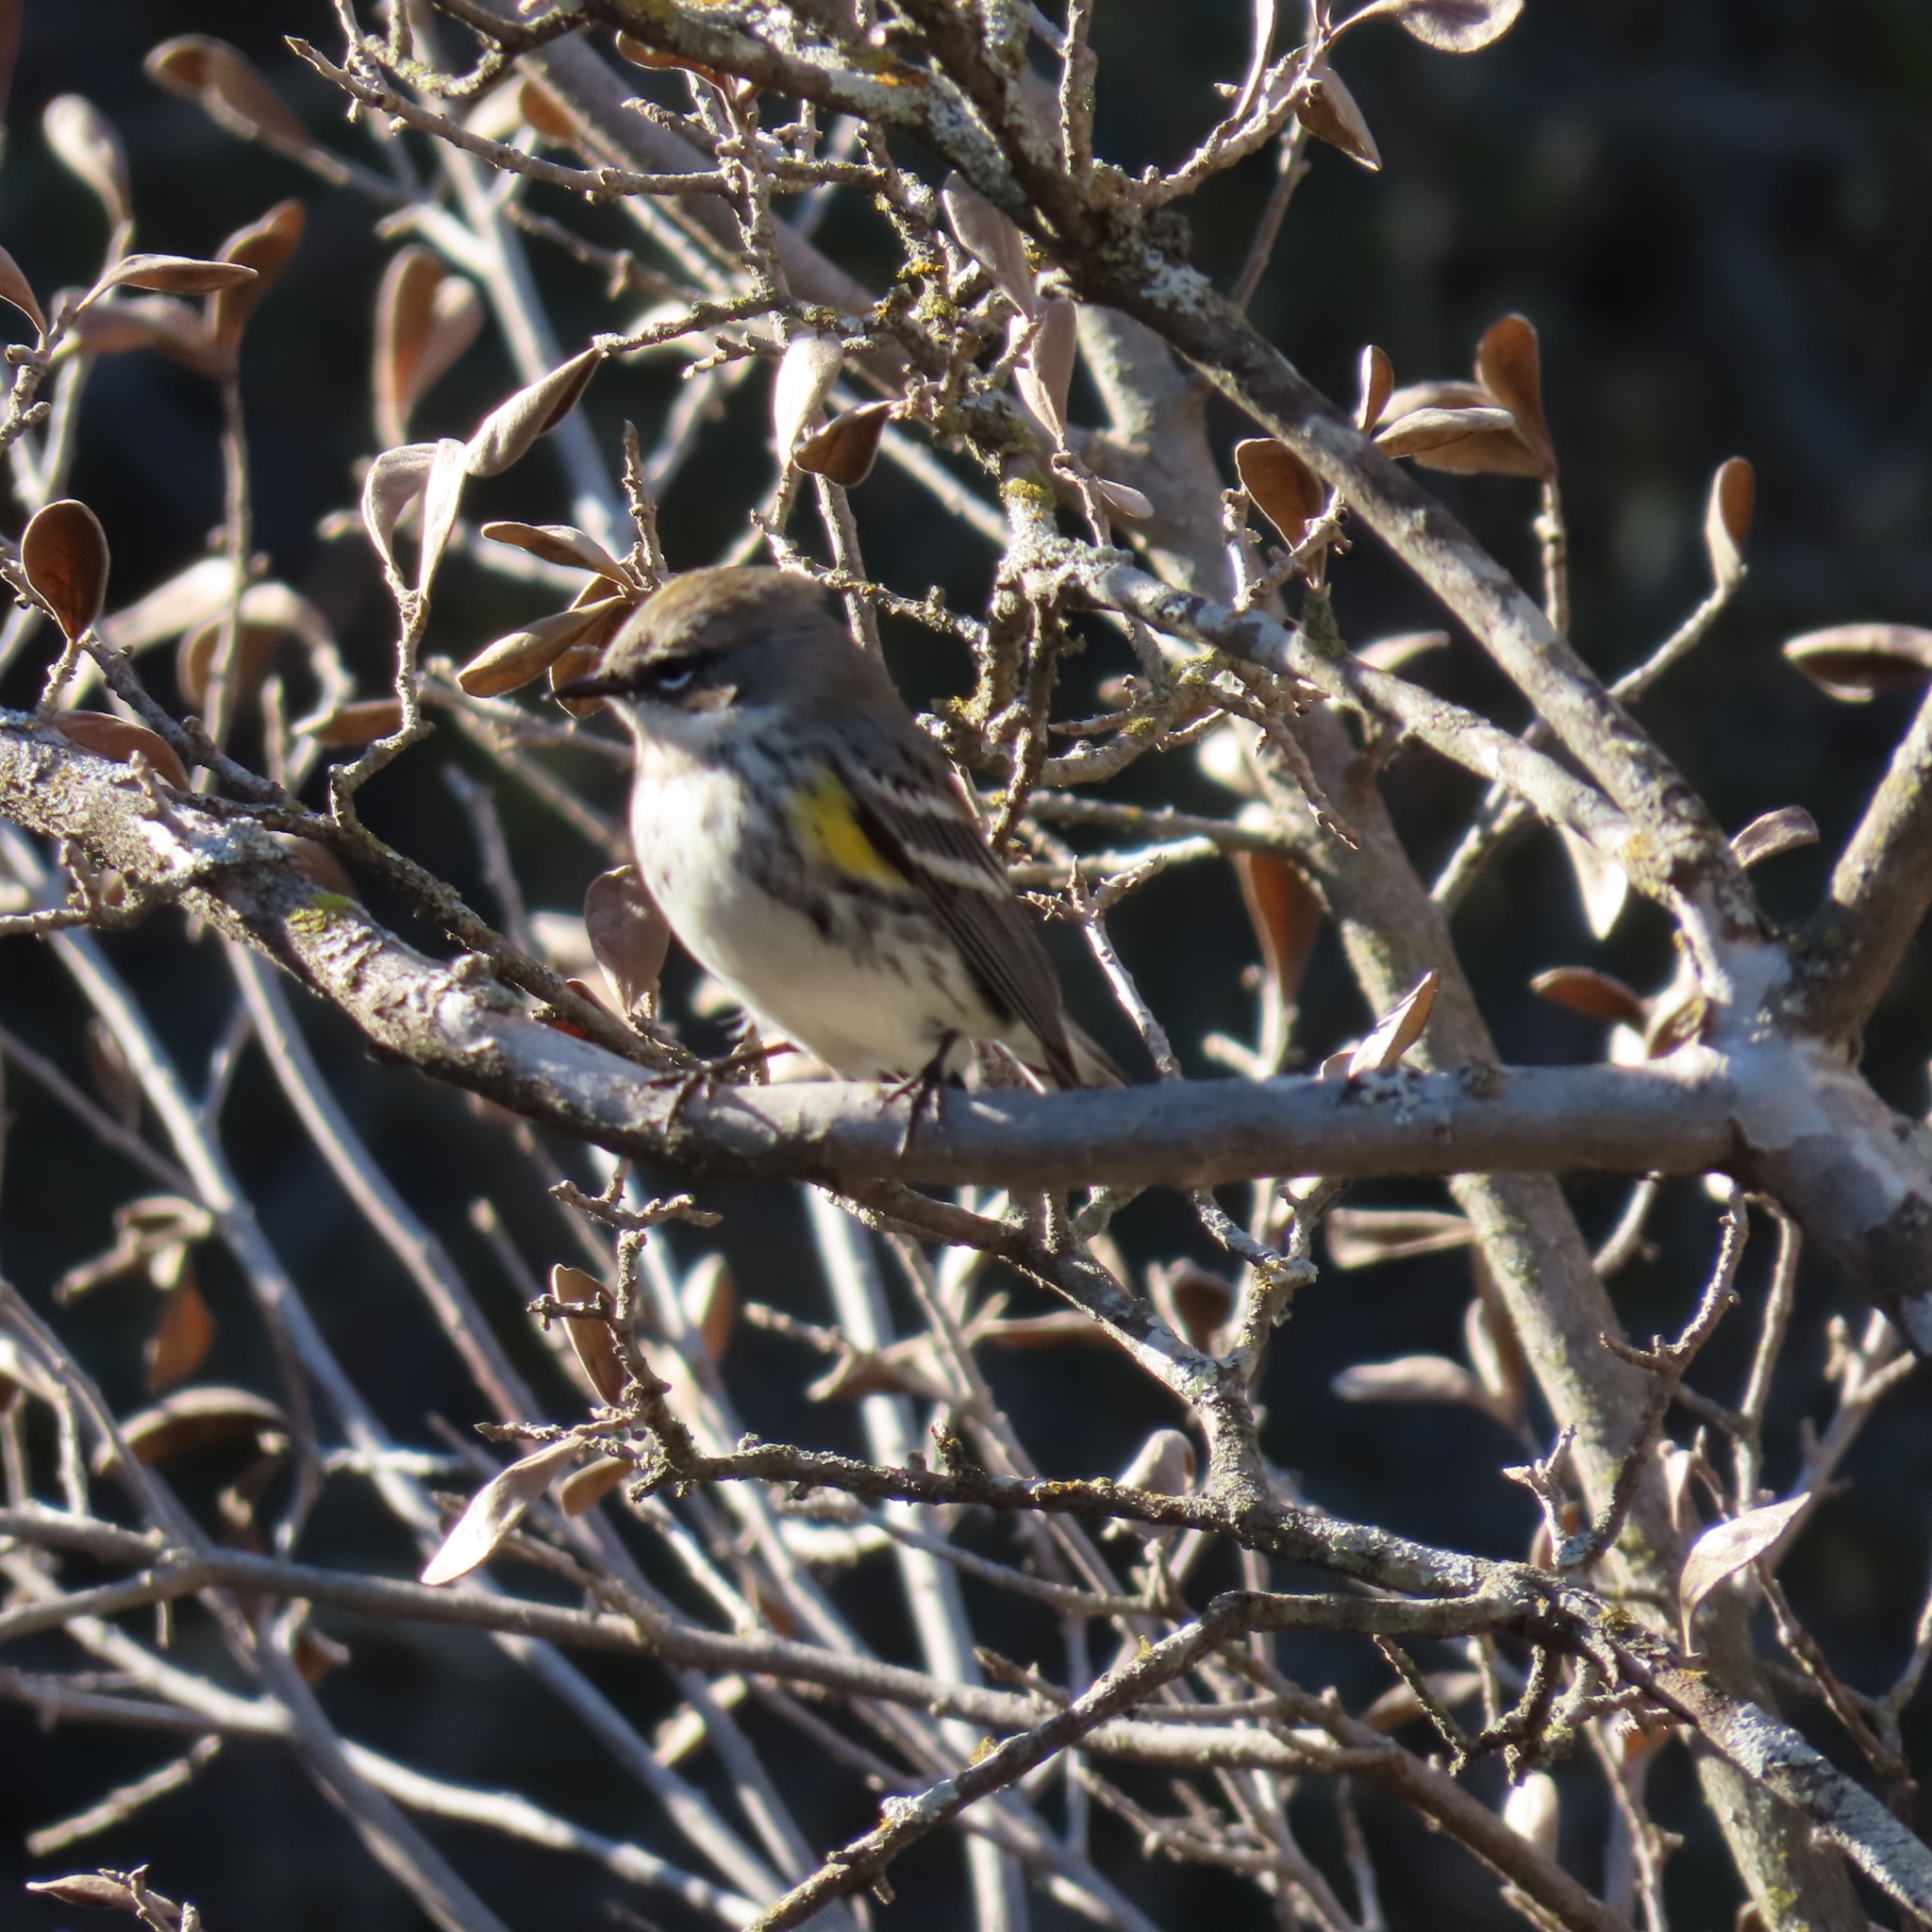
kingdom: Animalia
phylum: Chordata
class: Aves
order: Passeriformes
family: Parulidae
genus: Setophaga
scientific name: Setophaga coronata
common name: Myrtle warbler
